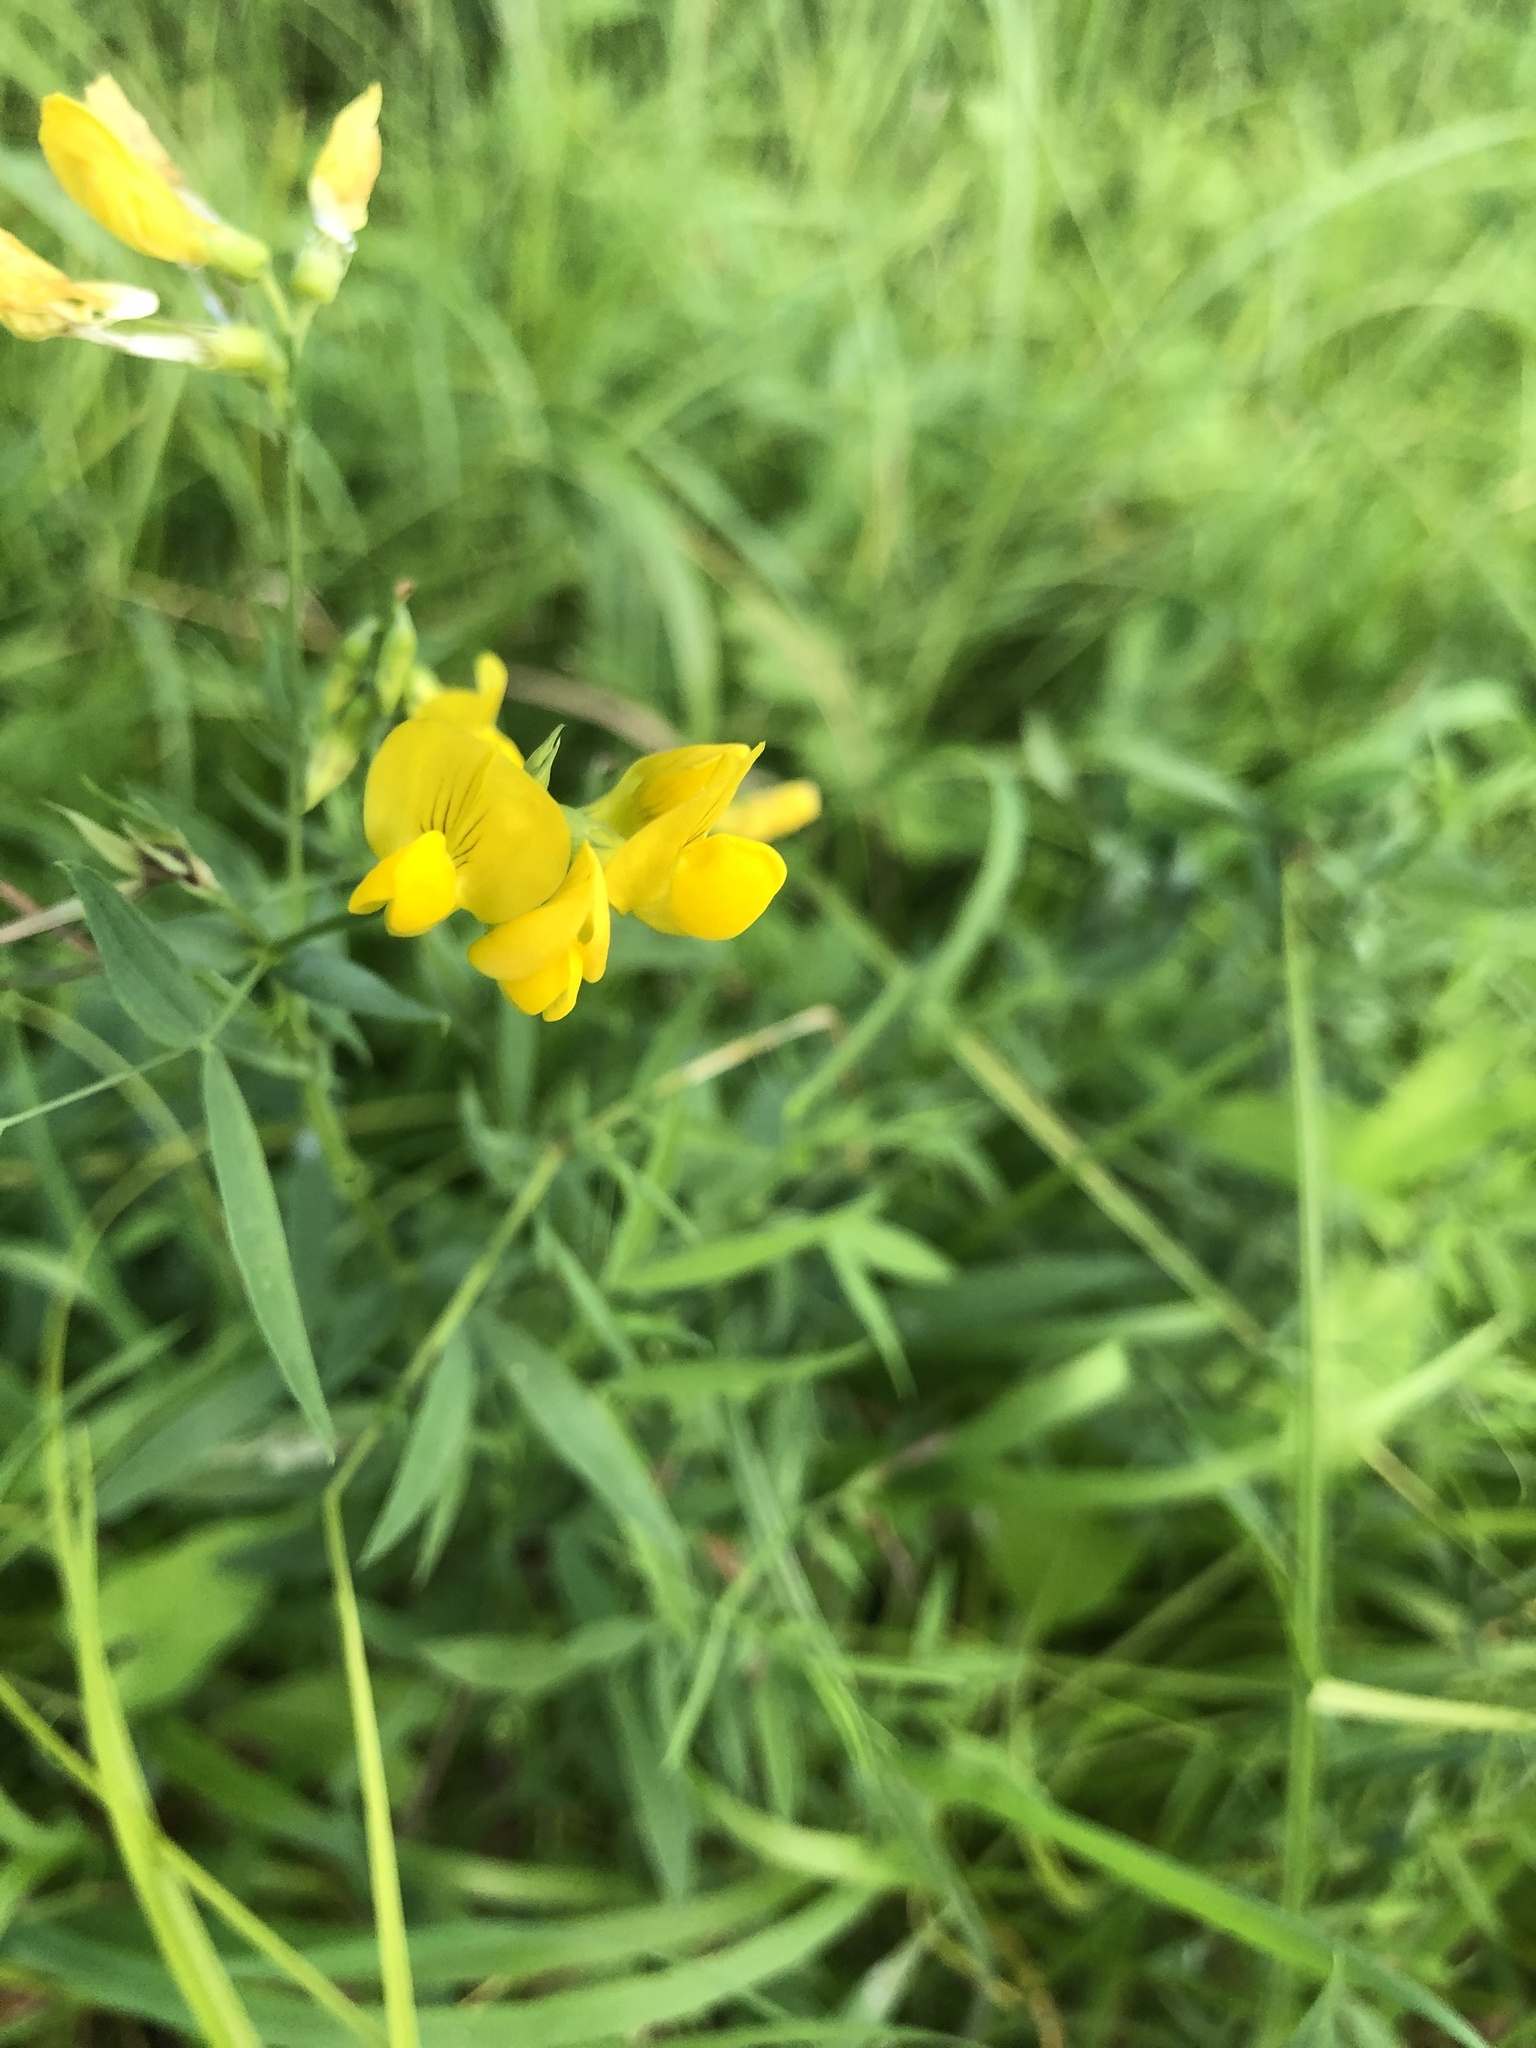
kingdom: Plantae
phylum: Tracheophyta
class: Magnoliopsida
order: Fabales
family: Fabaceae
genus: Lathyrus
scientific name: Lathyrus pratensis
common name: Meadow vetchling
